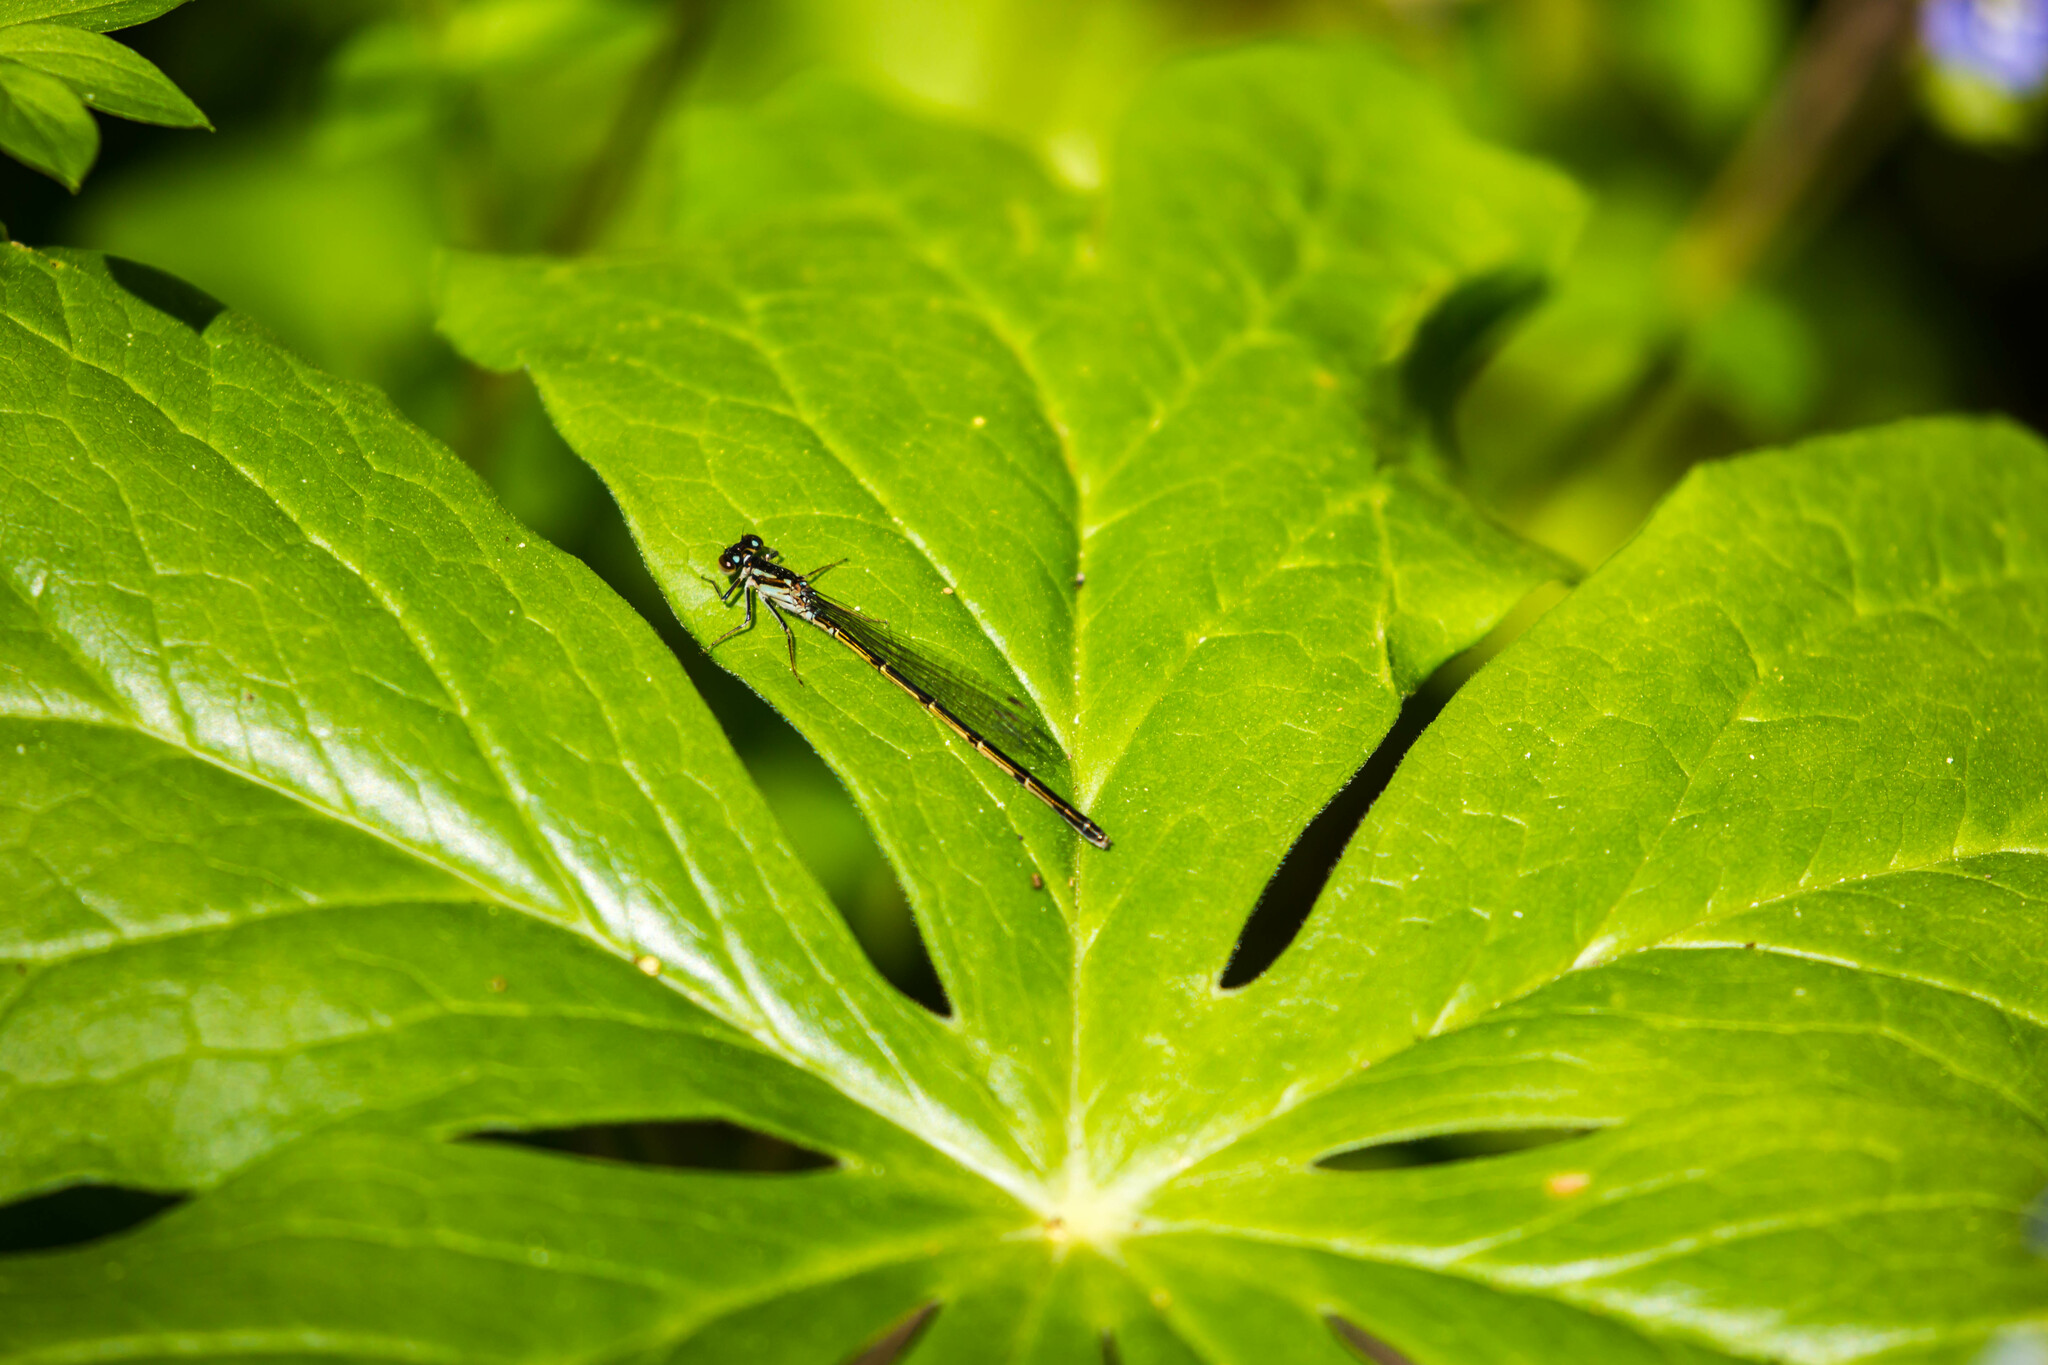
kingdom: Animalia
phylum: Arthropoda
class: Insecta
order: Odonata
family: Coenagrionidae
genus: Ischnura
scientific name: Ischnura posita
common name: Fragile forktail
